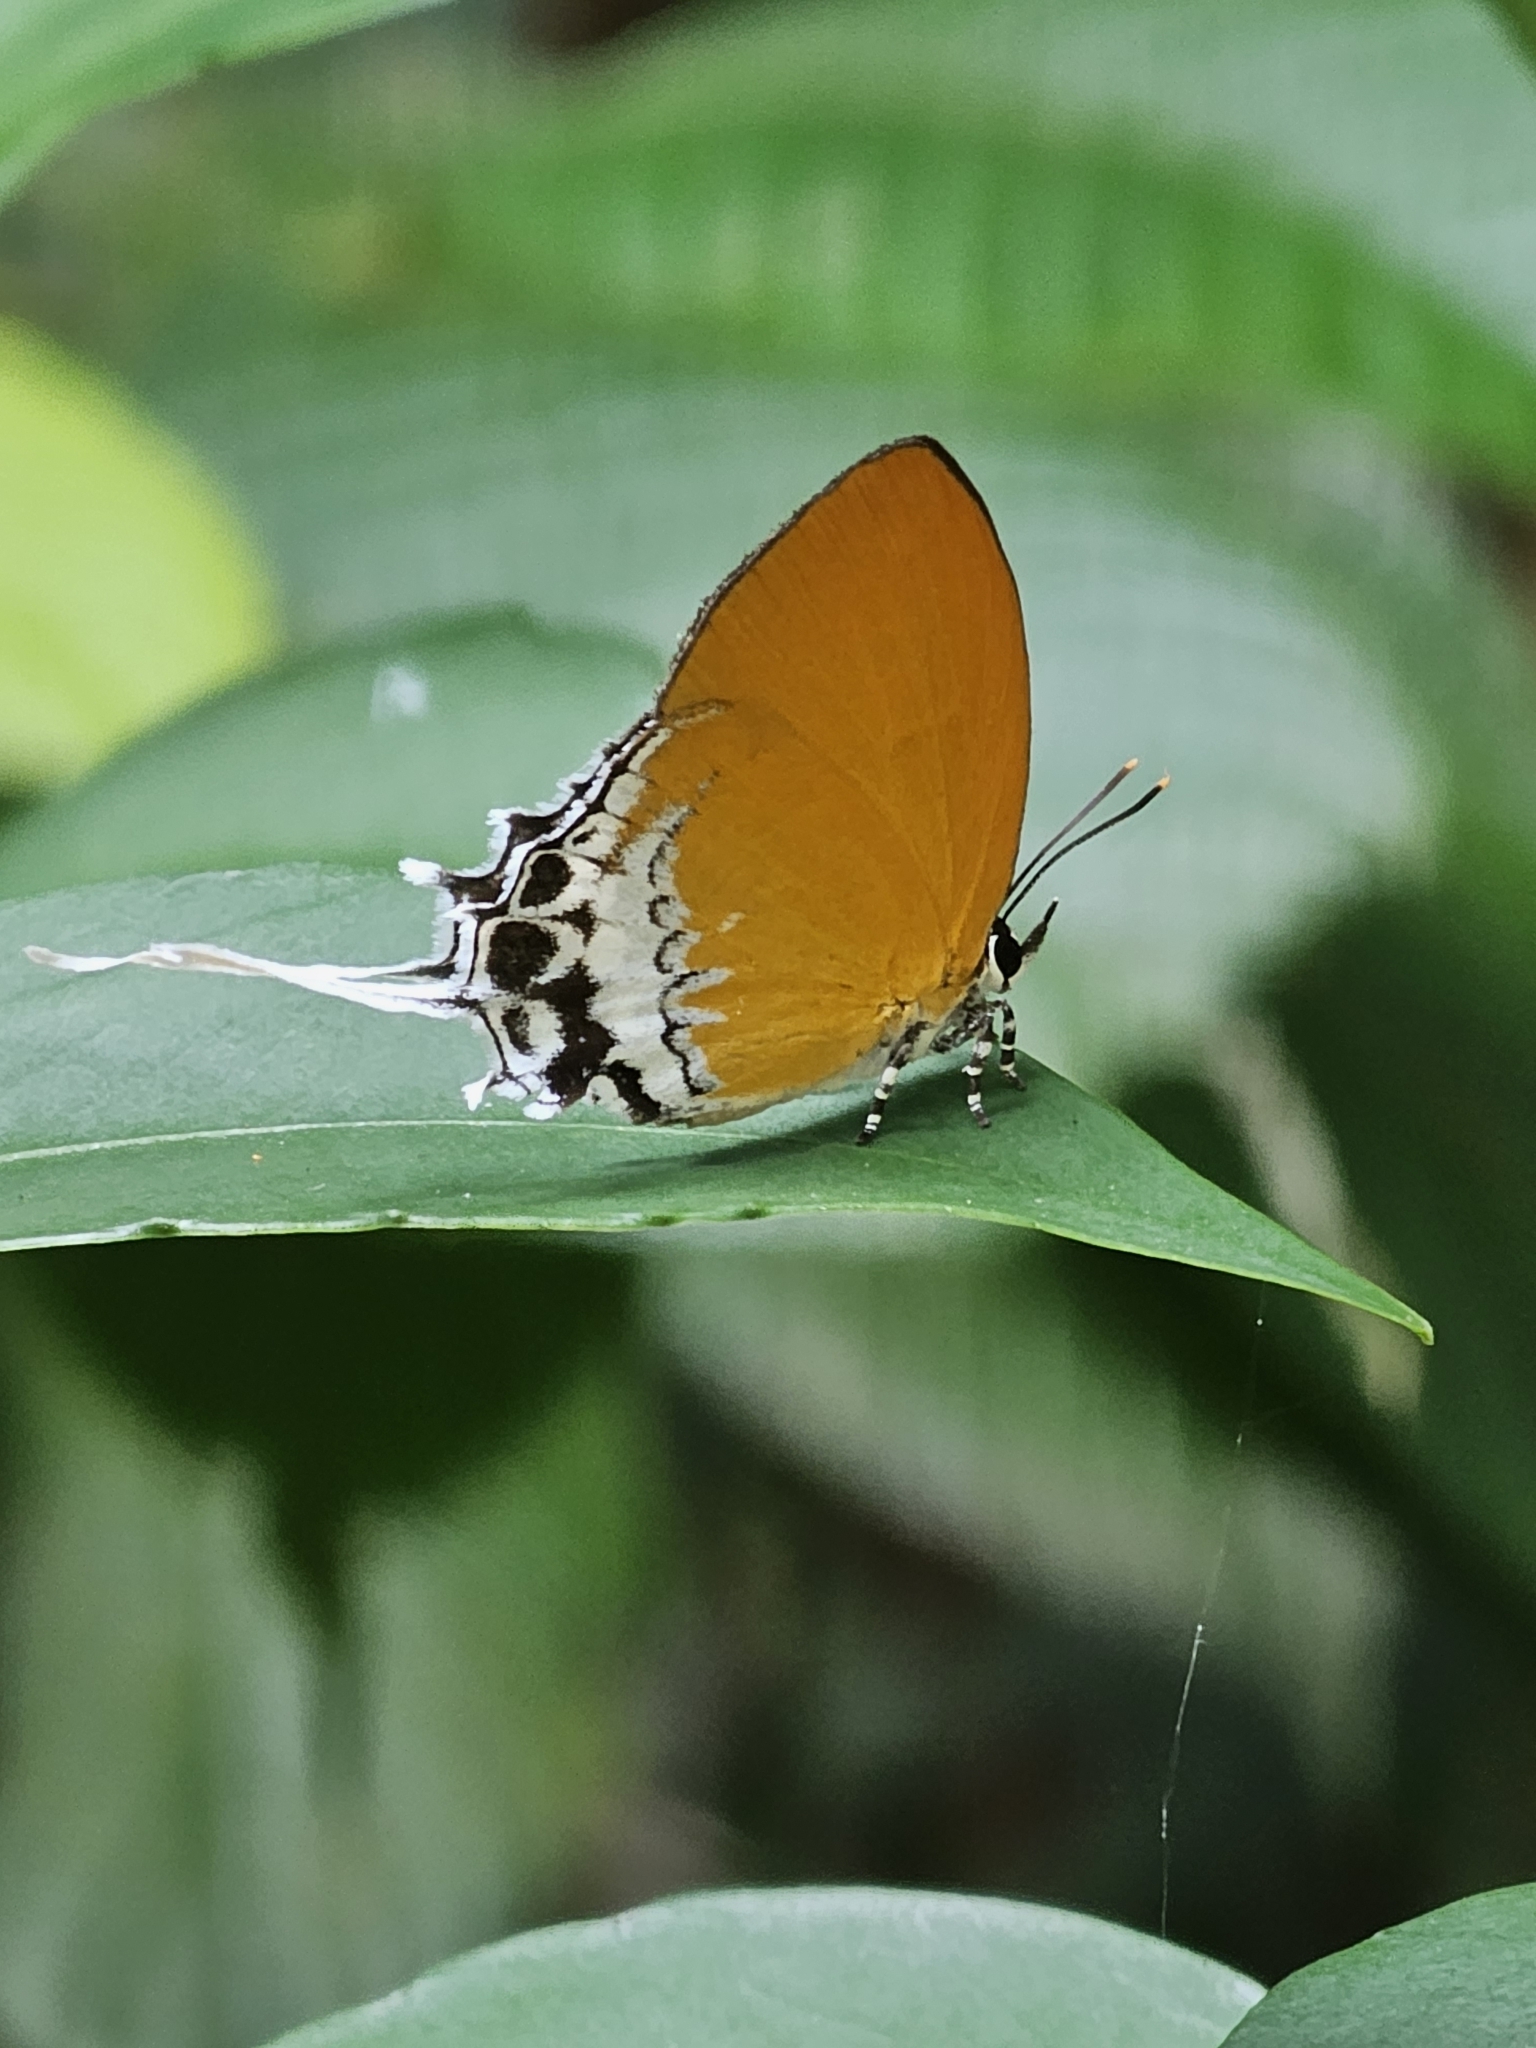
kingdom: Animalia
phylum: Arthropoda
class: Insecta
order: Lepidoptera
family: Lycaenidae
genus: Eooxylides
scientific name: Eooxylides tharis
